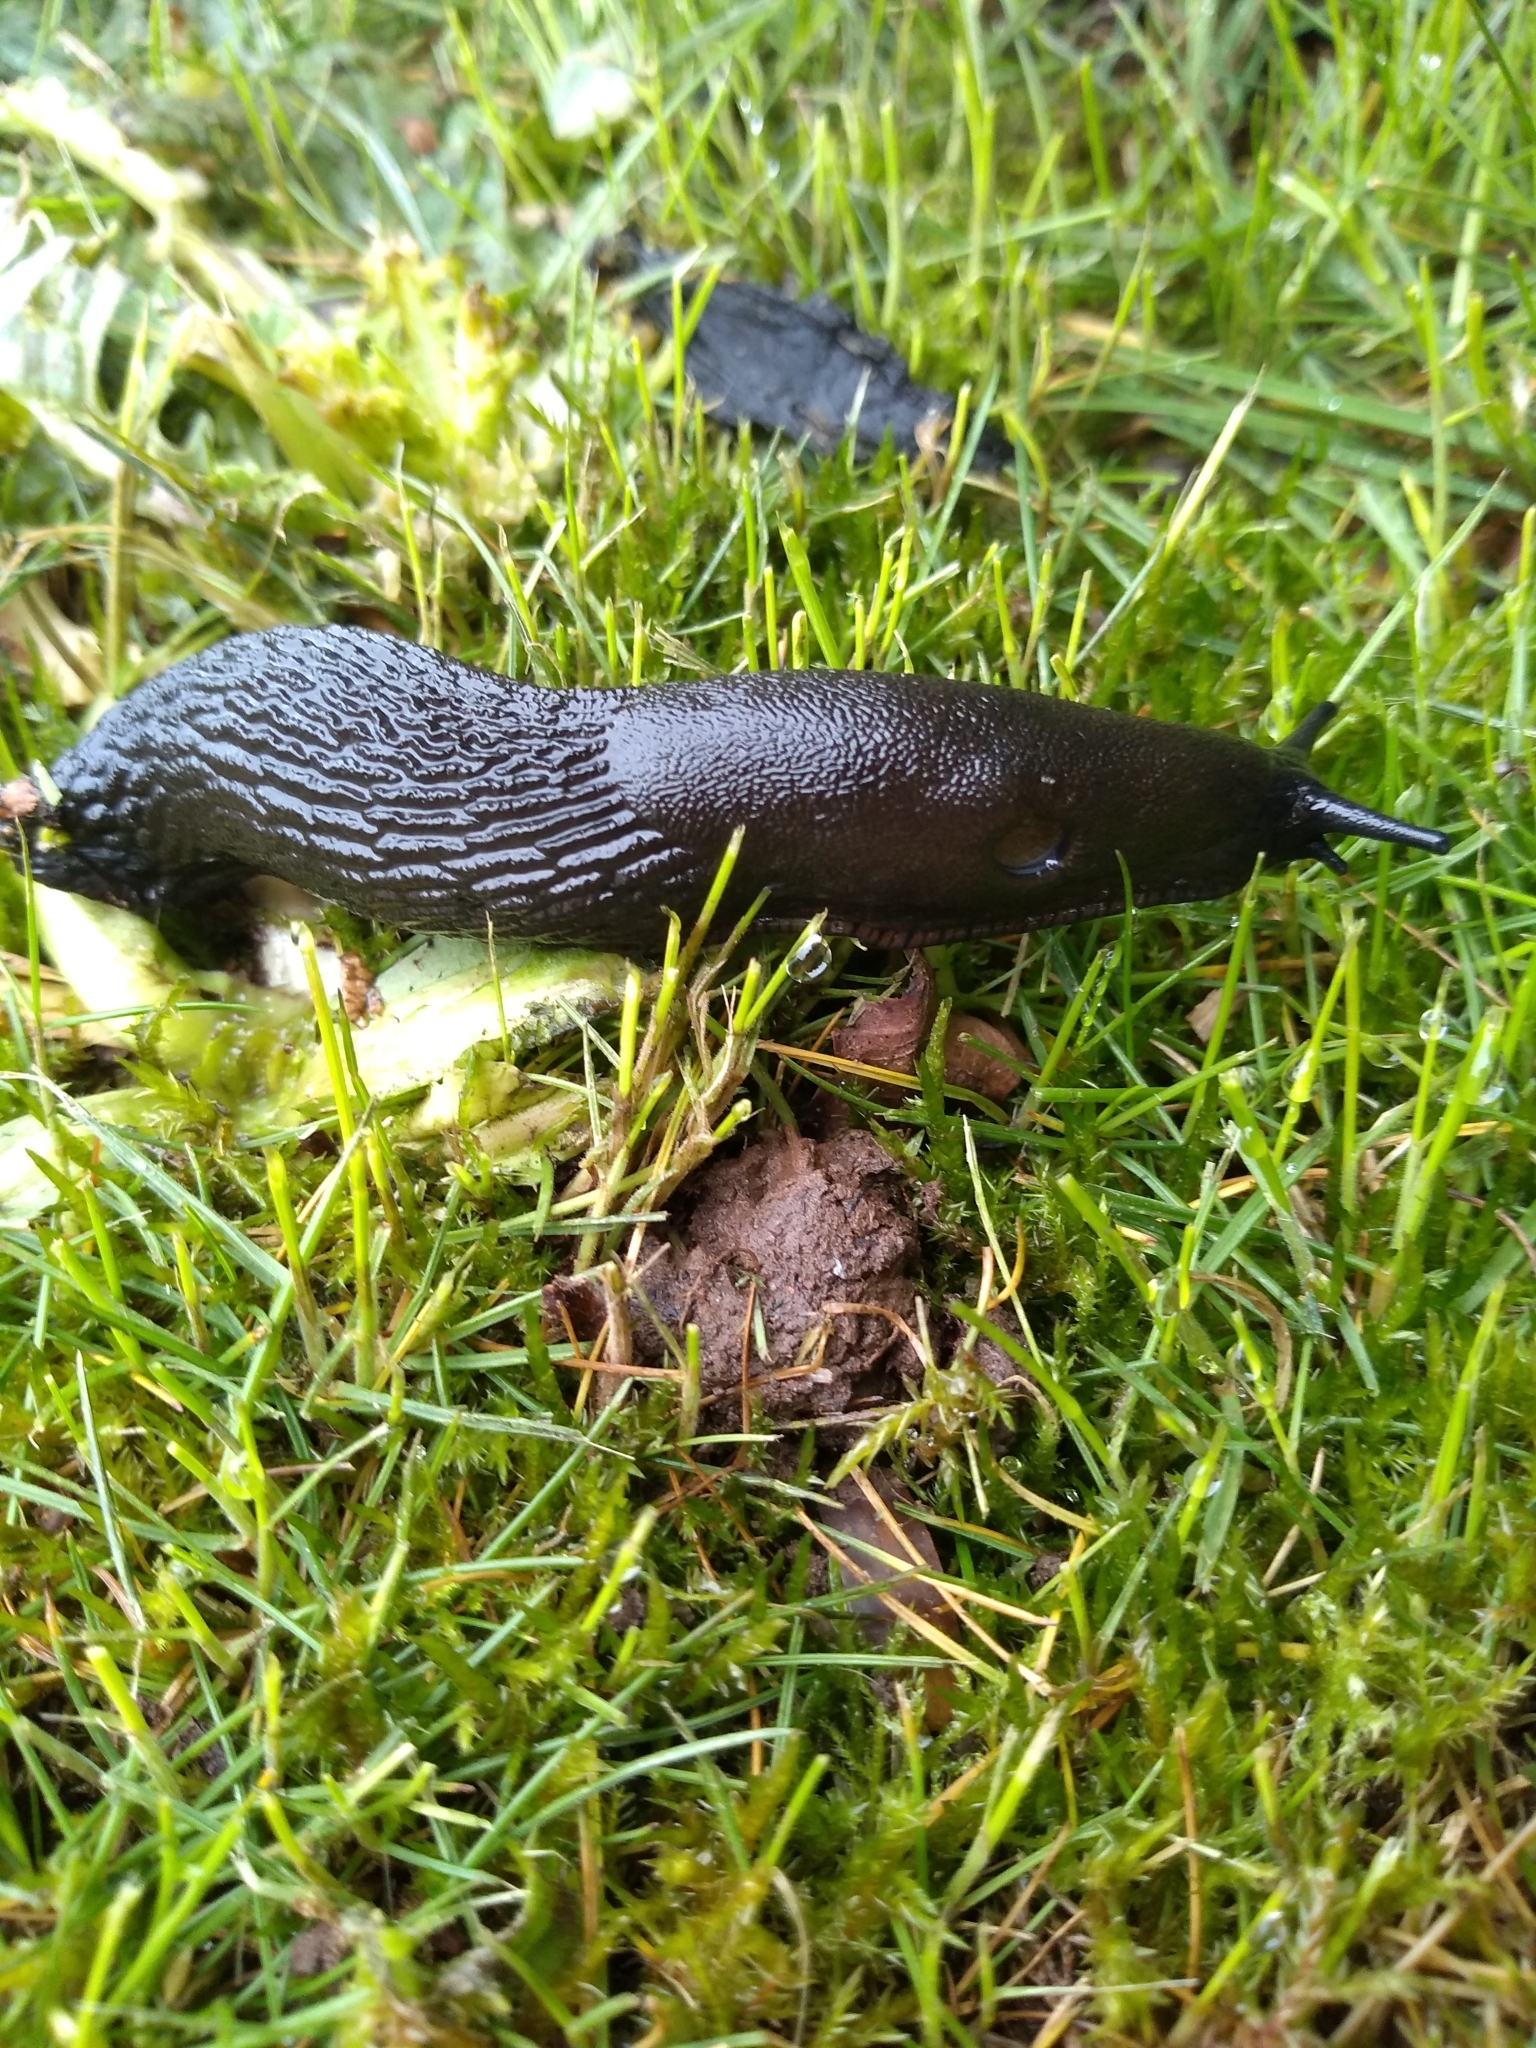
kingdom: Animalia
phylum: Mollusca
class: Gastropoda
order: Stylommatophora
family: Arionidae
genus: Arion
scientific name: Arion
